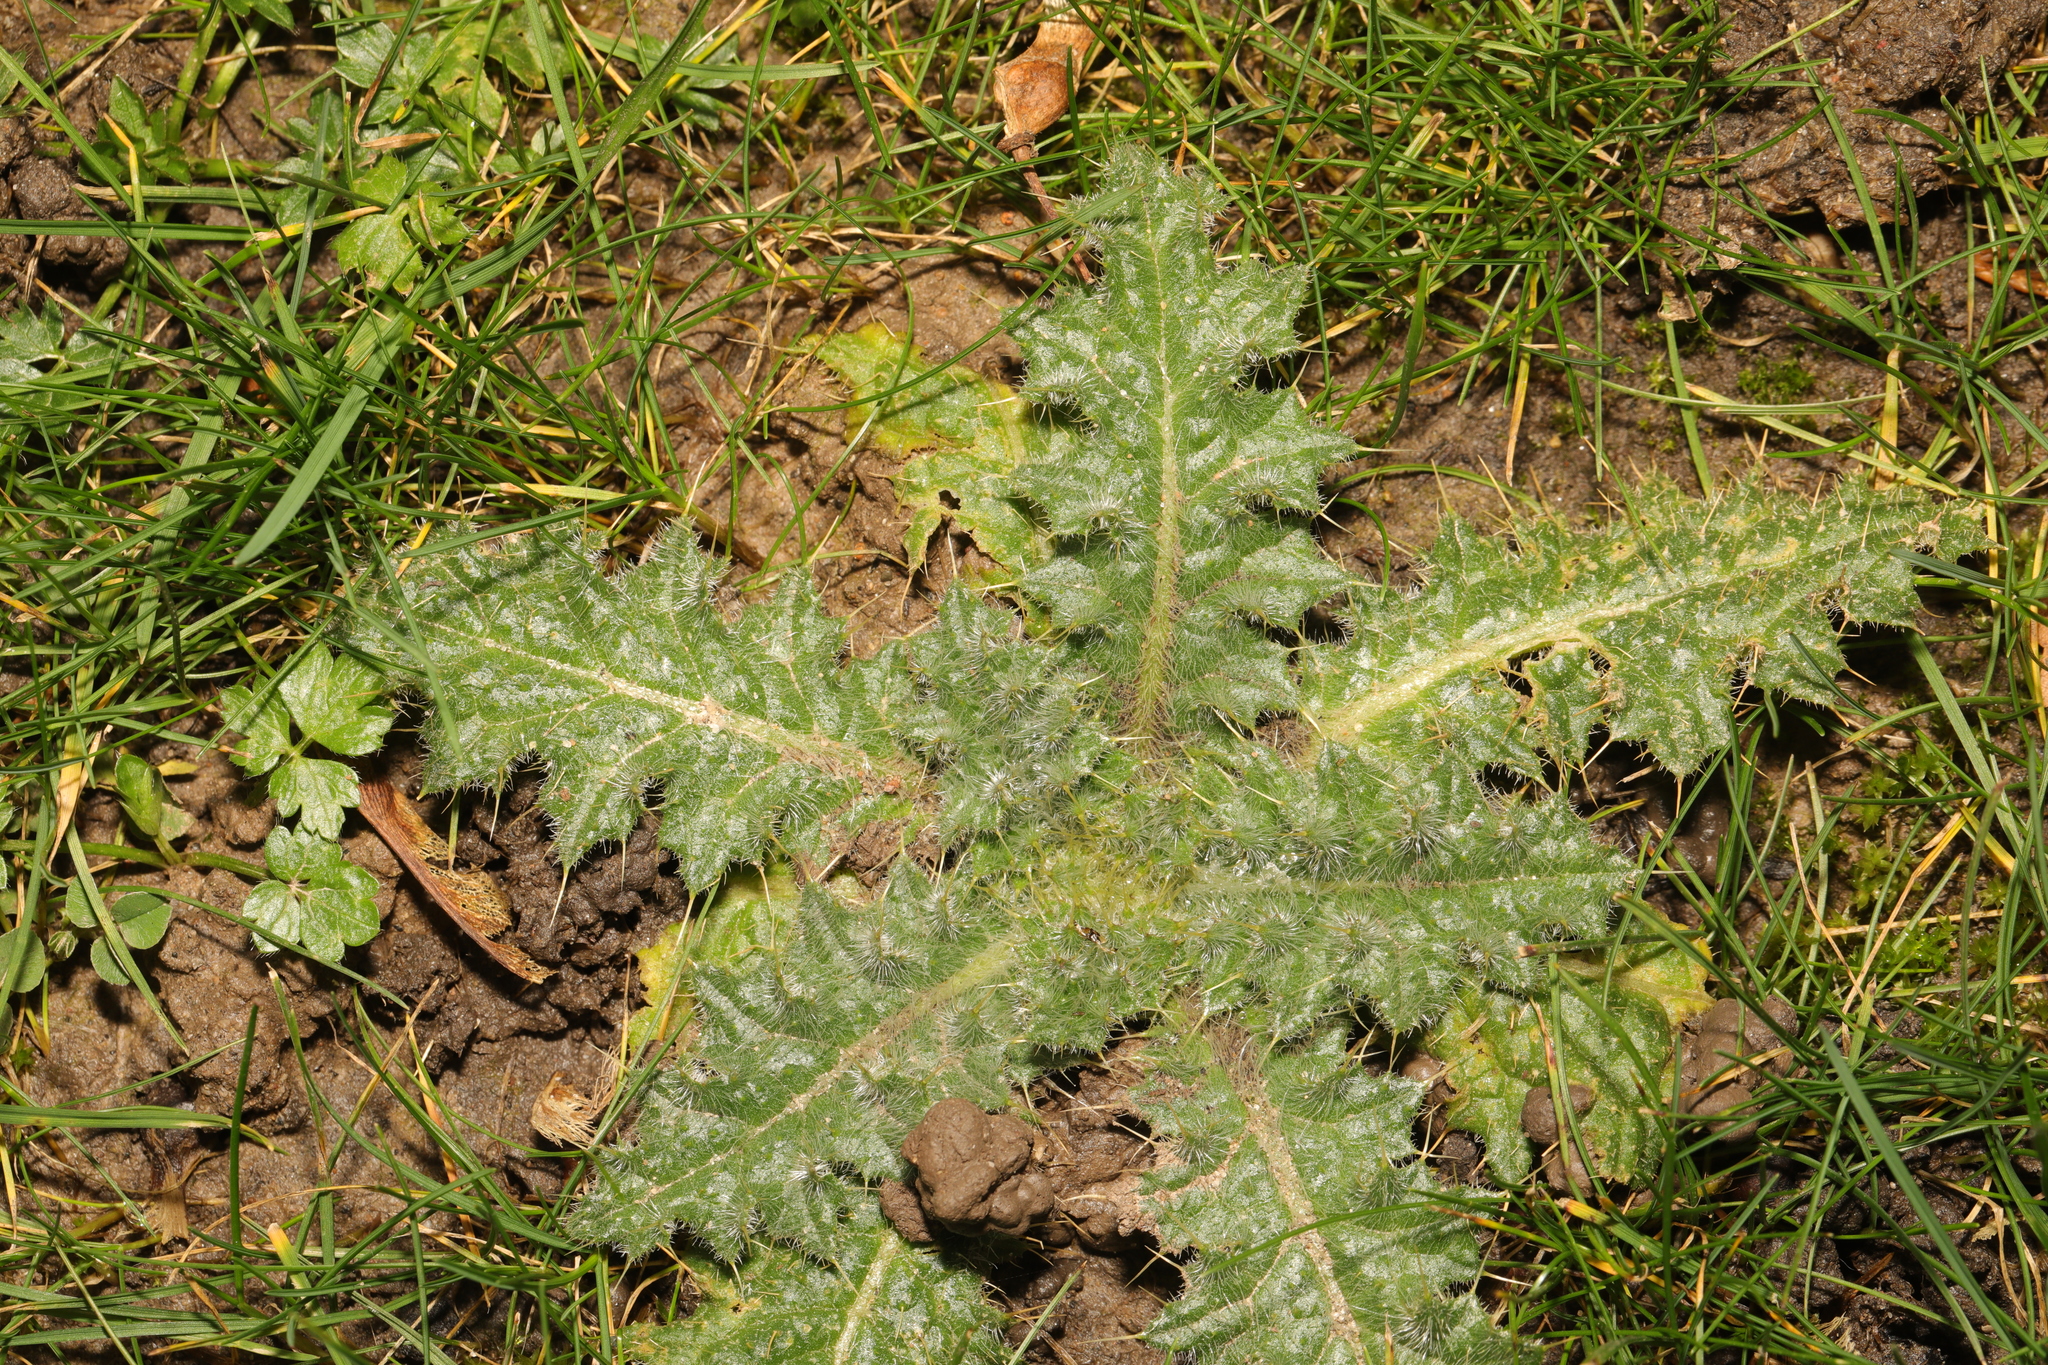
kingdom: Plantae
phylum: Tracheophyta
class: Magnoliopsida
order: Asterales
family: Asteraceae
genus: Cirsium
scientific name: Cirsium vulgare
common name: Bull thistle
